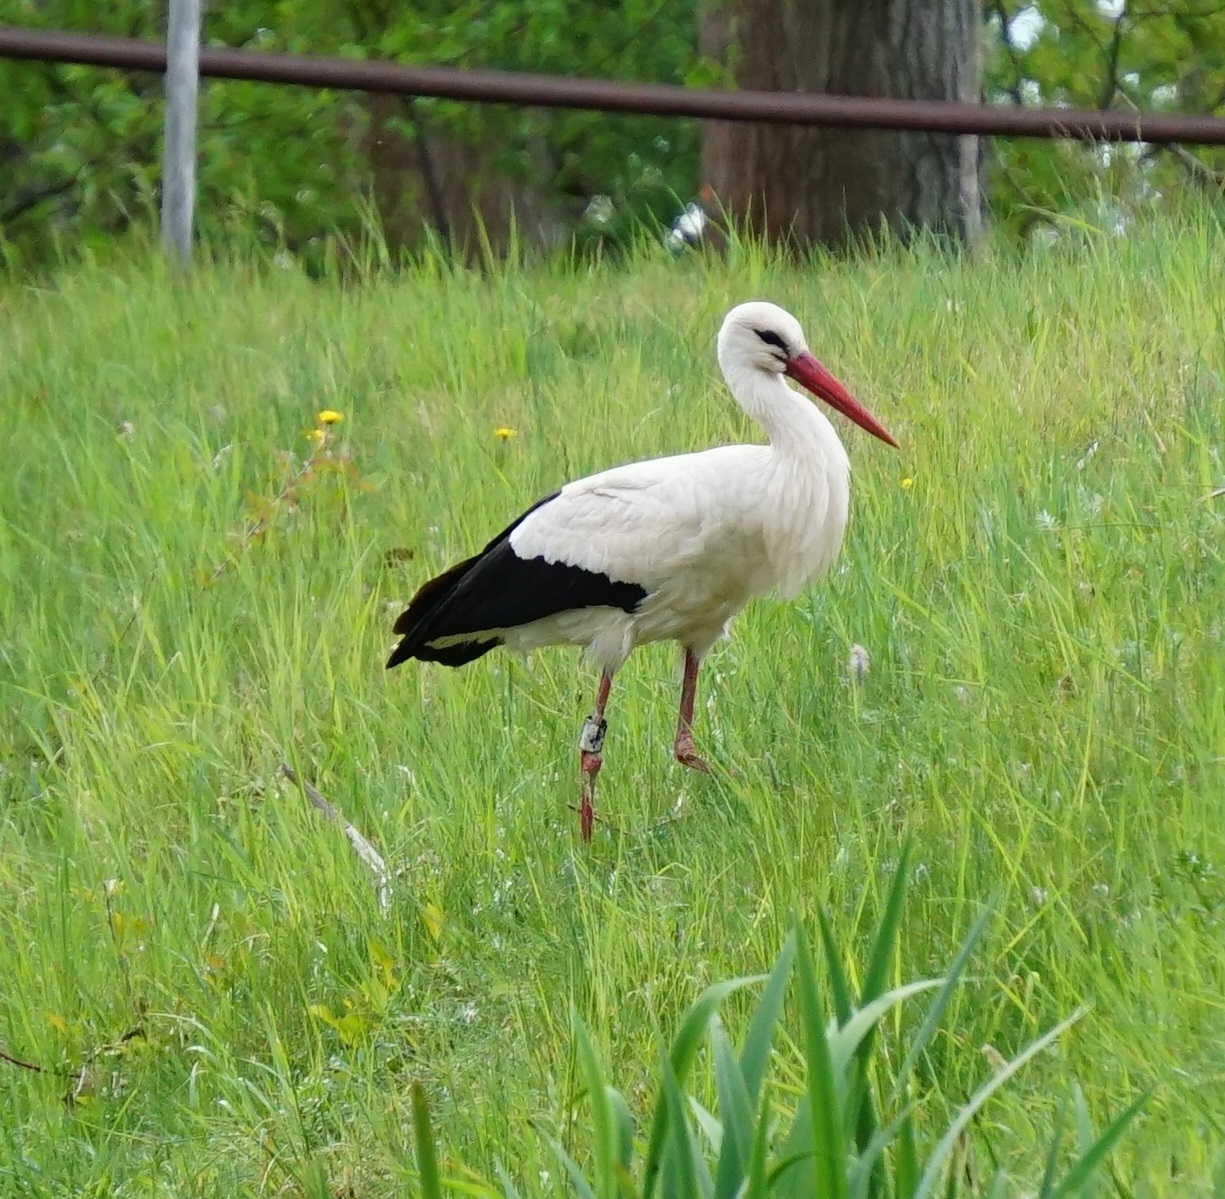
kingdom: Animalia
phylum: Chordata
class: Aves
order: Ciconiiformes
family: Ciconiidae
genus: Ciconia
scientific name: Ciconia ciconia
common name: White stork
